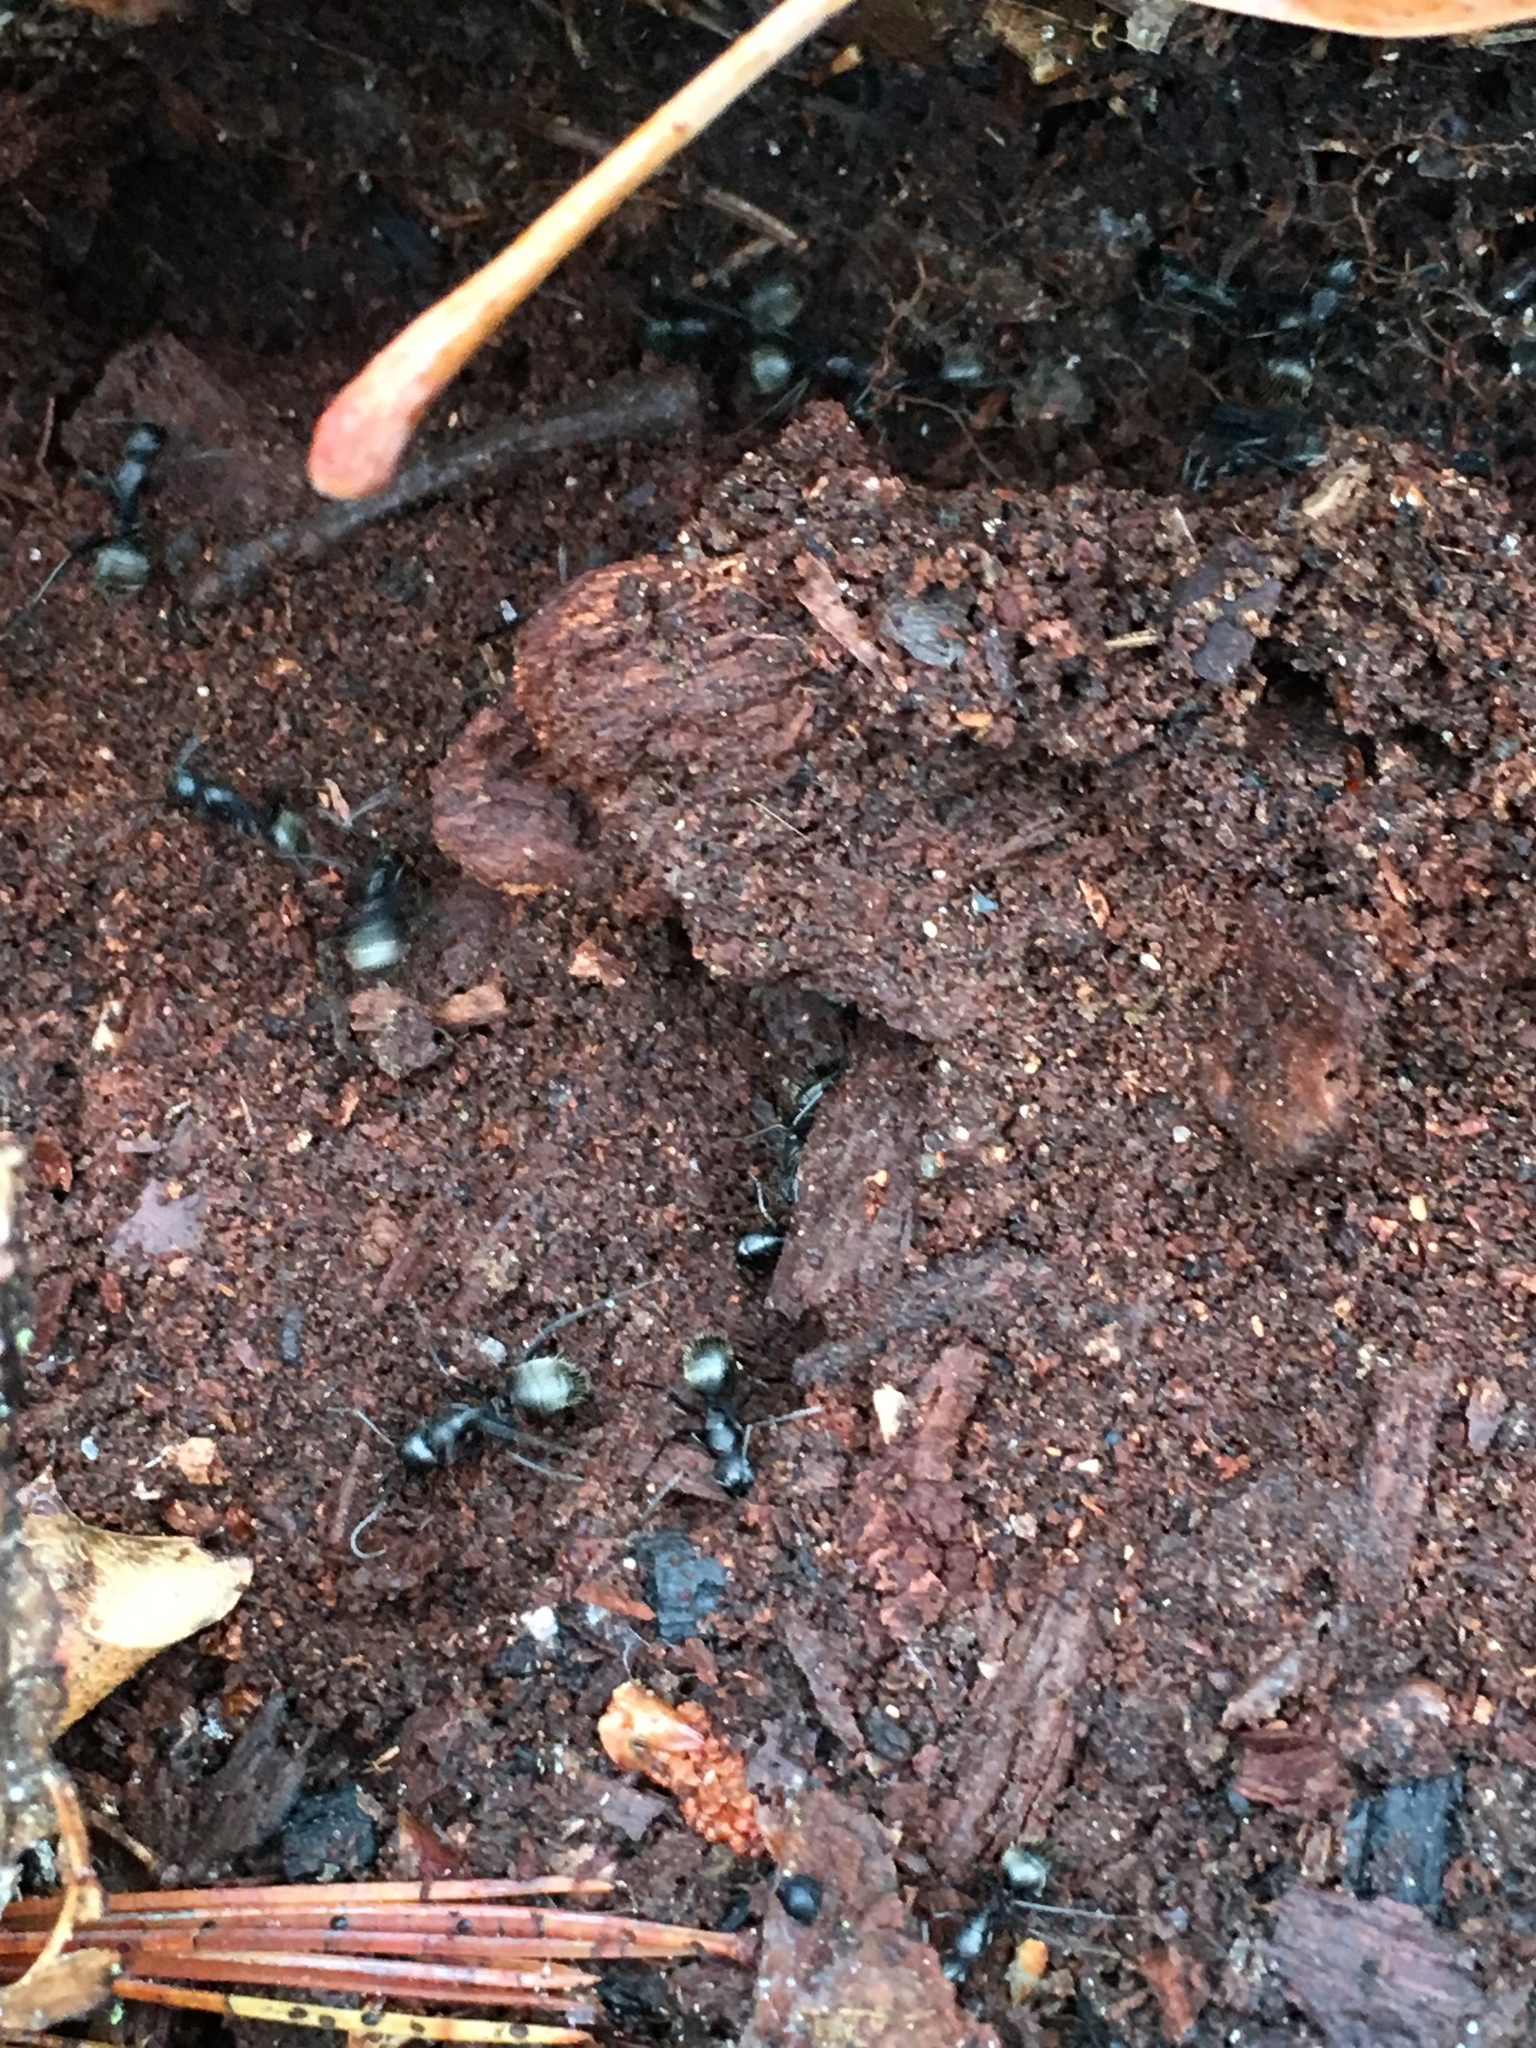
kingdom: Animalia
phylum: Arthropoda
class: Insecta
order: Hymenoptera
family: Formicidae
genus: Camponotus
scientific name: Camponotus pennsylvanicus
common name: Black carpenter ant
